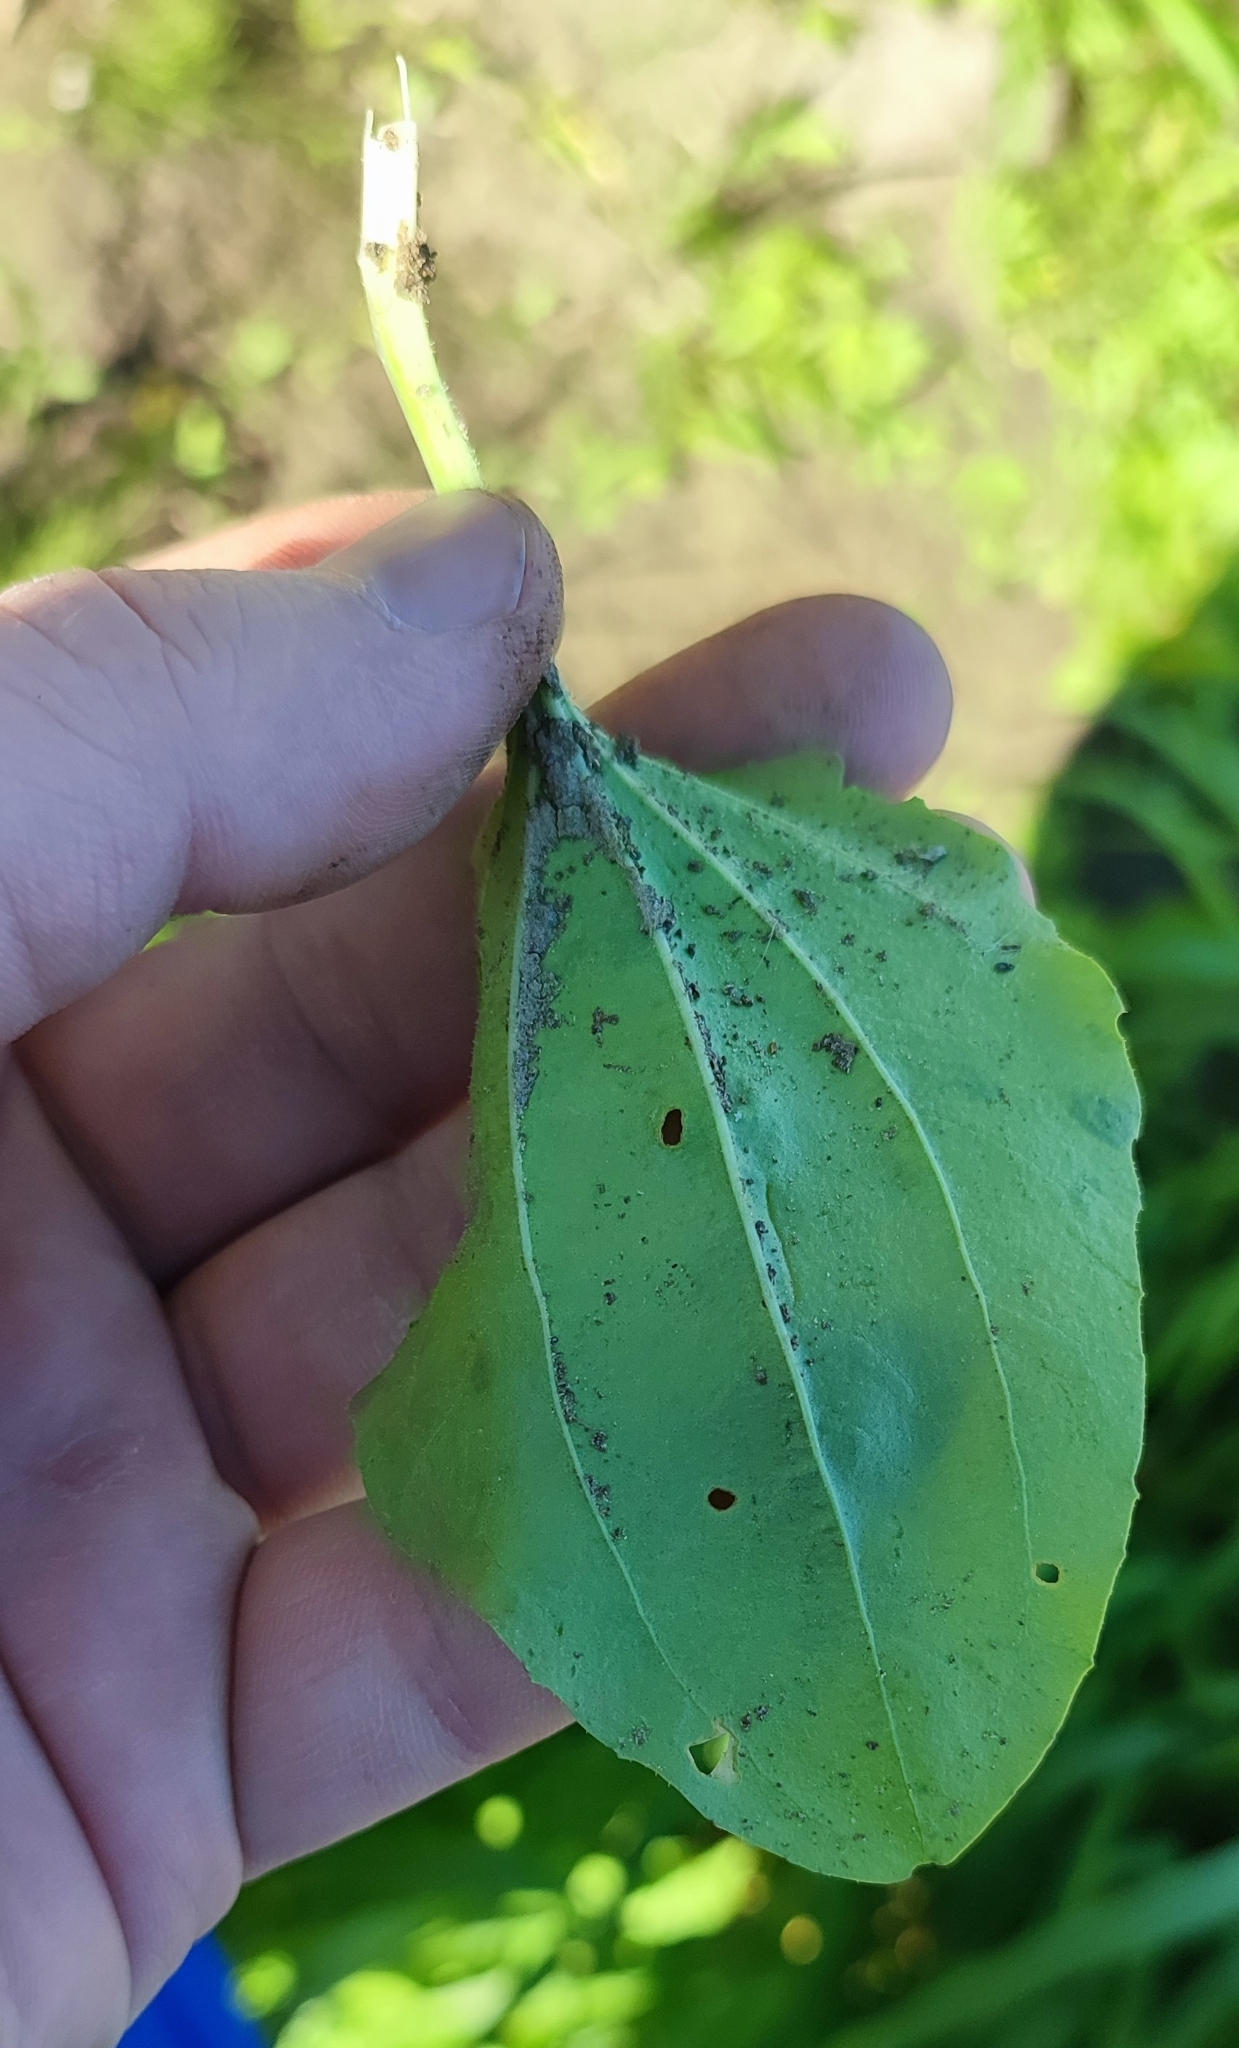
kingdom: Plantae
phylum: Tracheophyta
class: Magnoliopsida
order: Lamiales
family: Plantaginaceae
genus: Plantago
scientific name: Plantago major
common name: Common plantain
